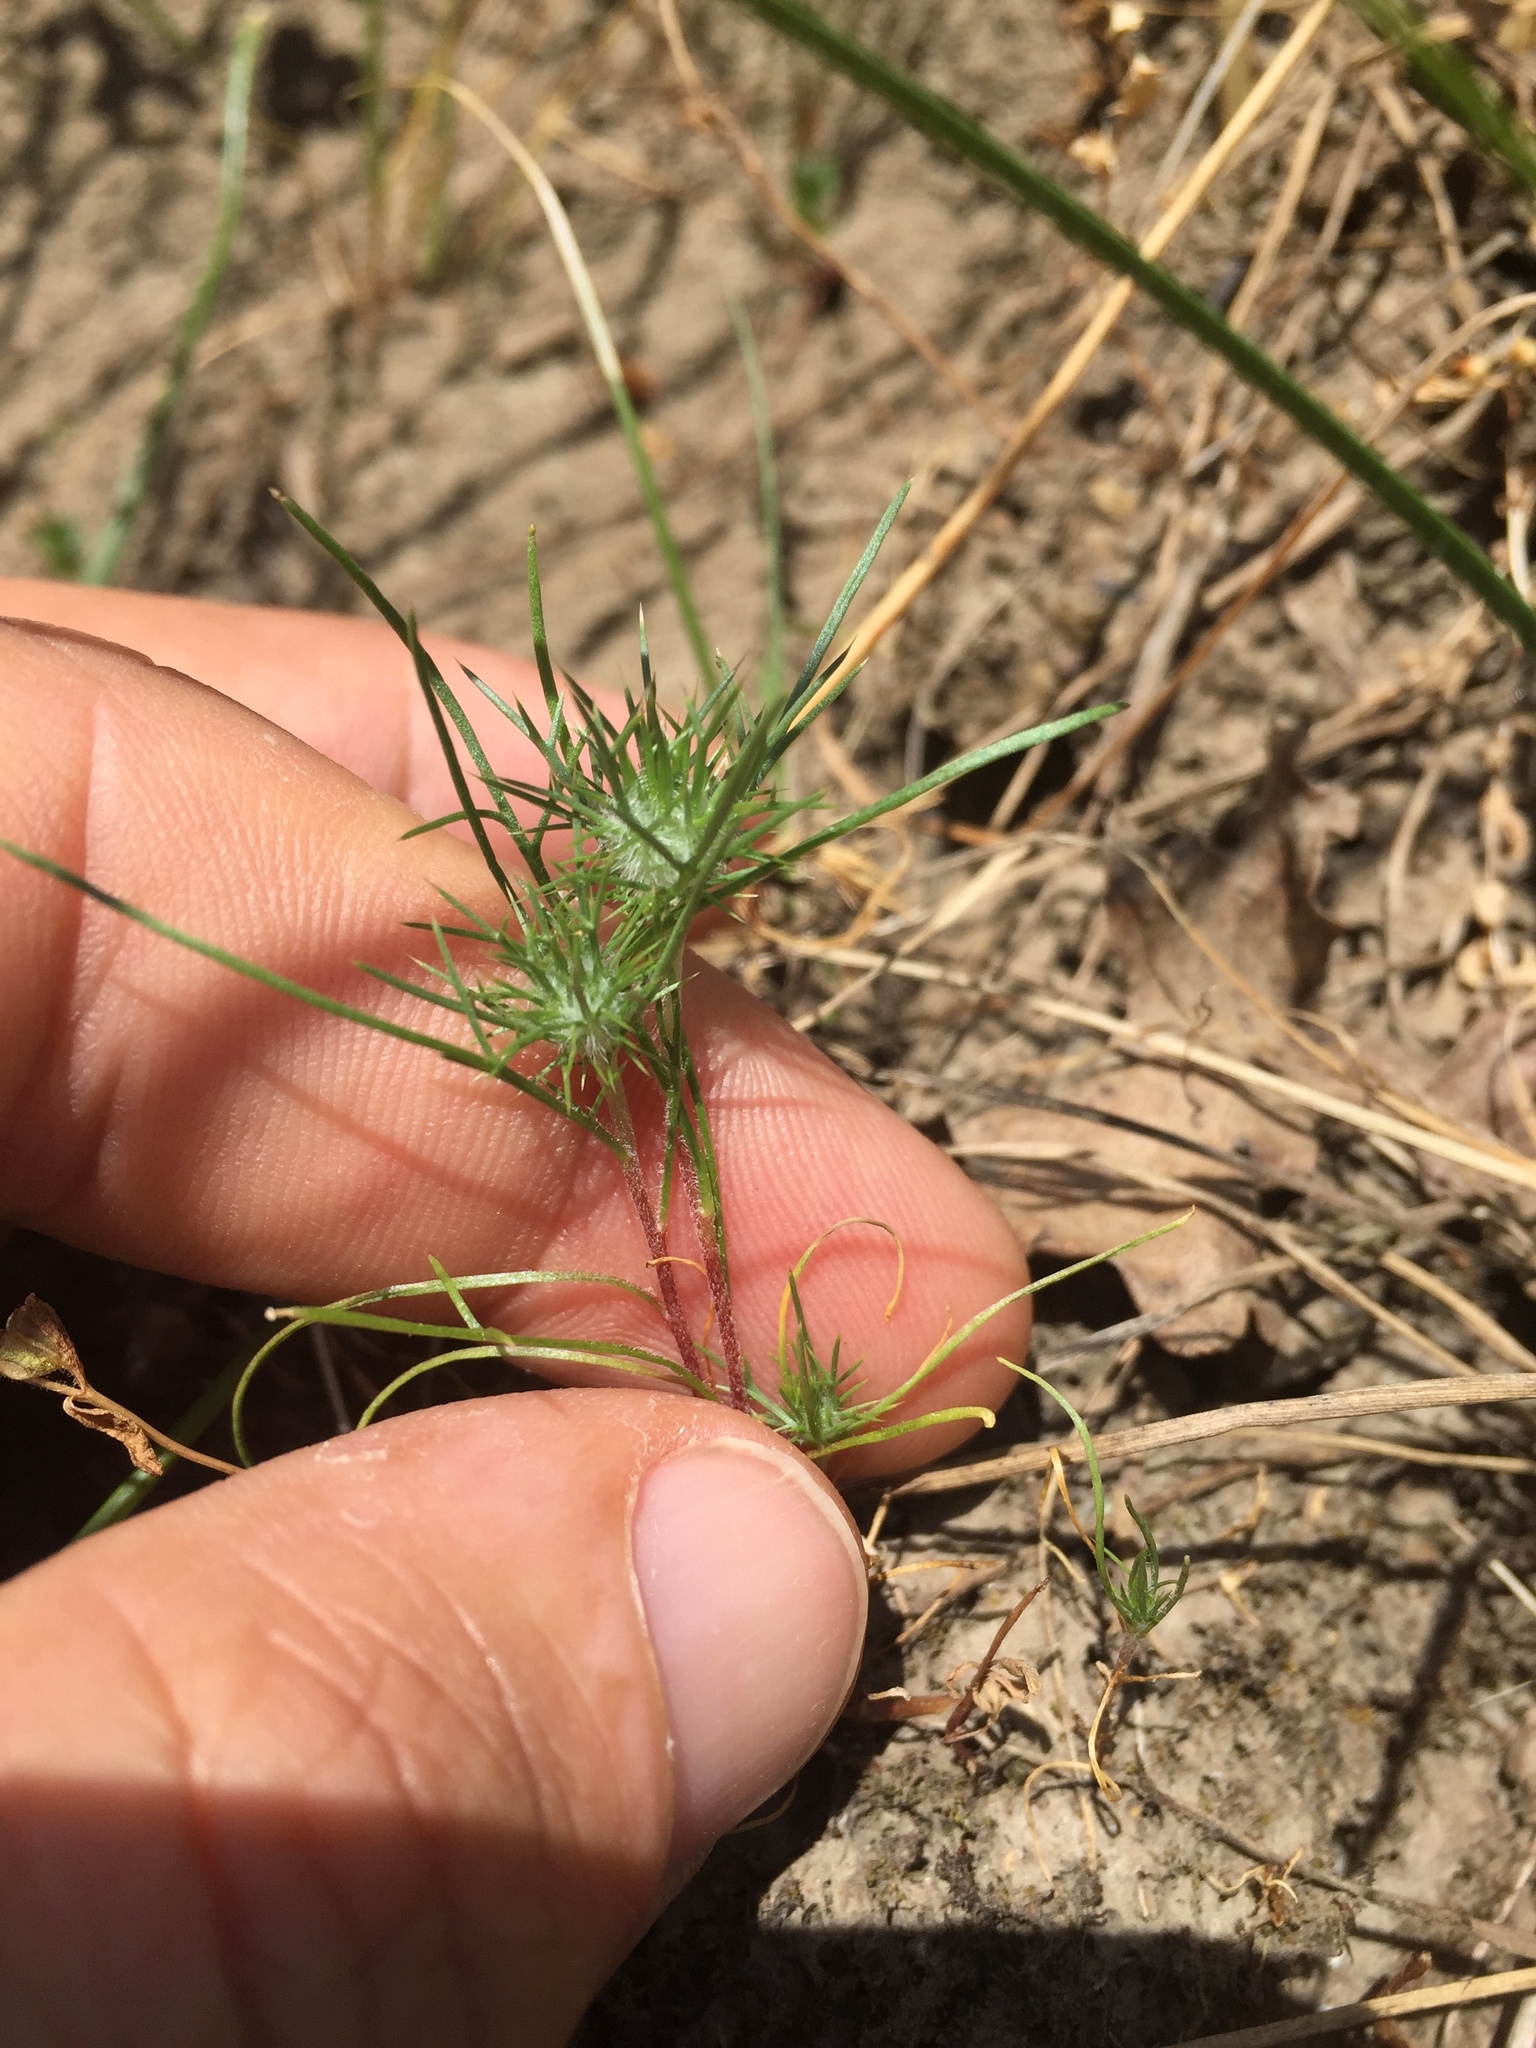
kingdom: Plantae
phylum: Tracheophyta
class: Magnoliopsida
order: Ericales
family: Polemoniaceae
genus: Navarretia
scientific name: Navarretia intertexta
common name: Needle-leaved navarretia
